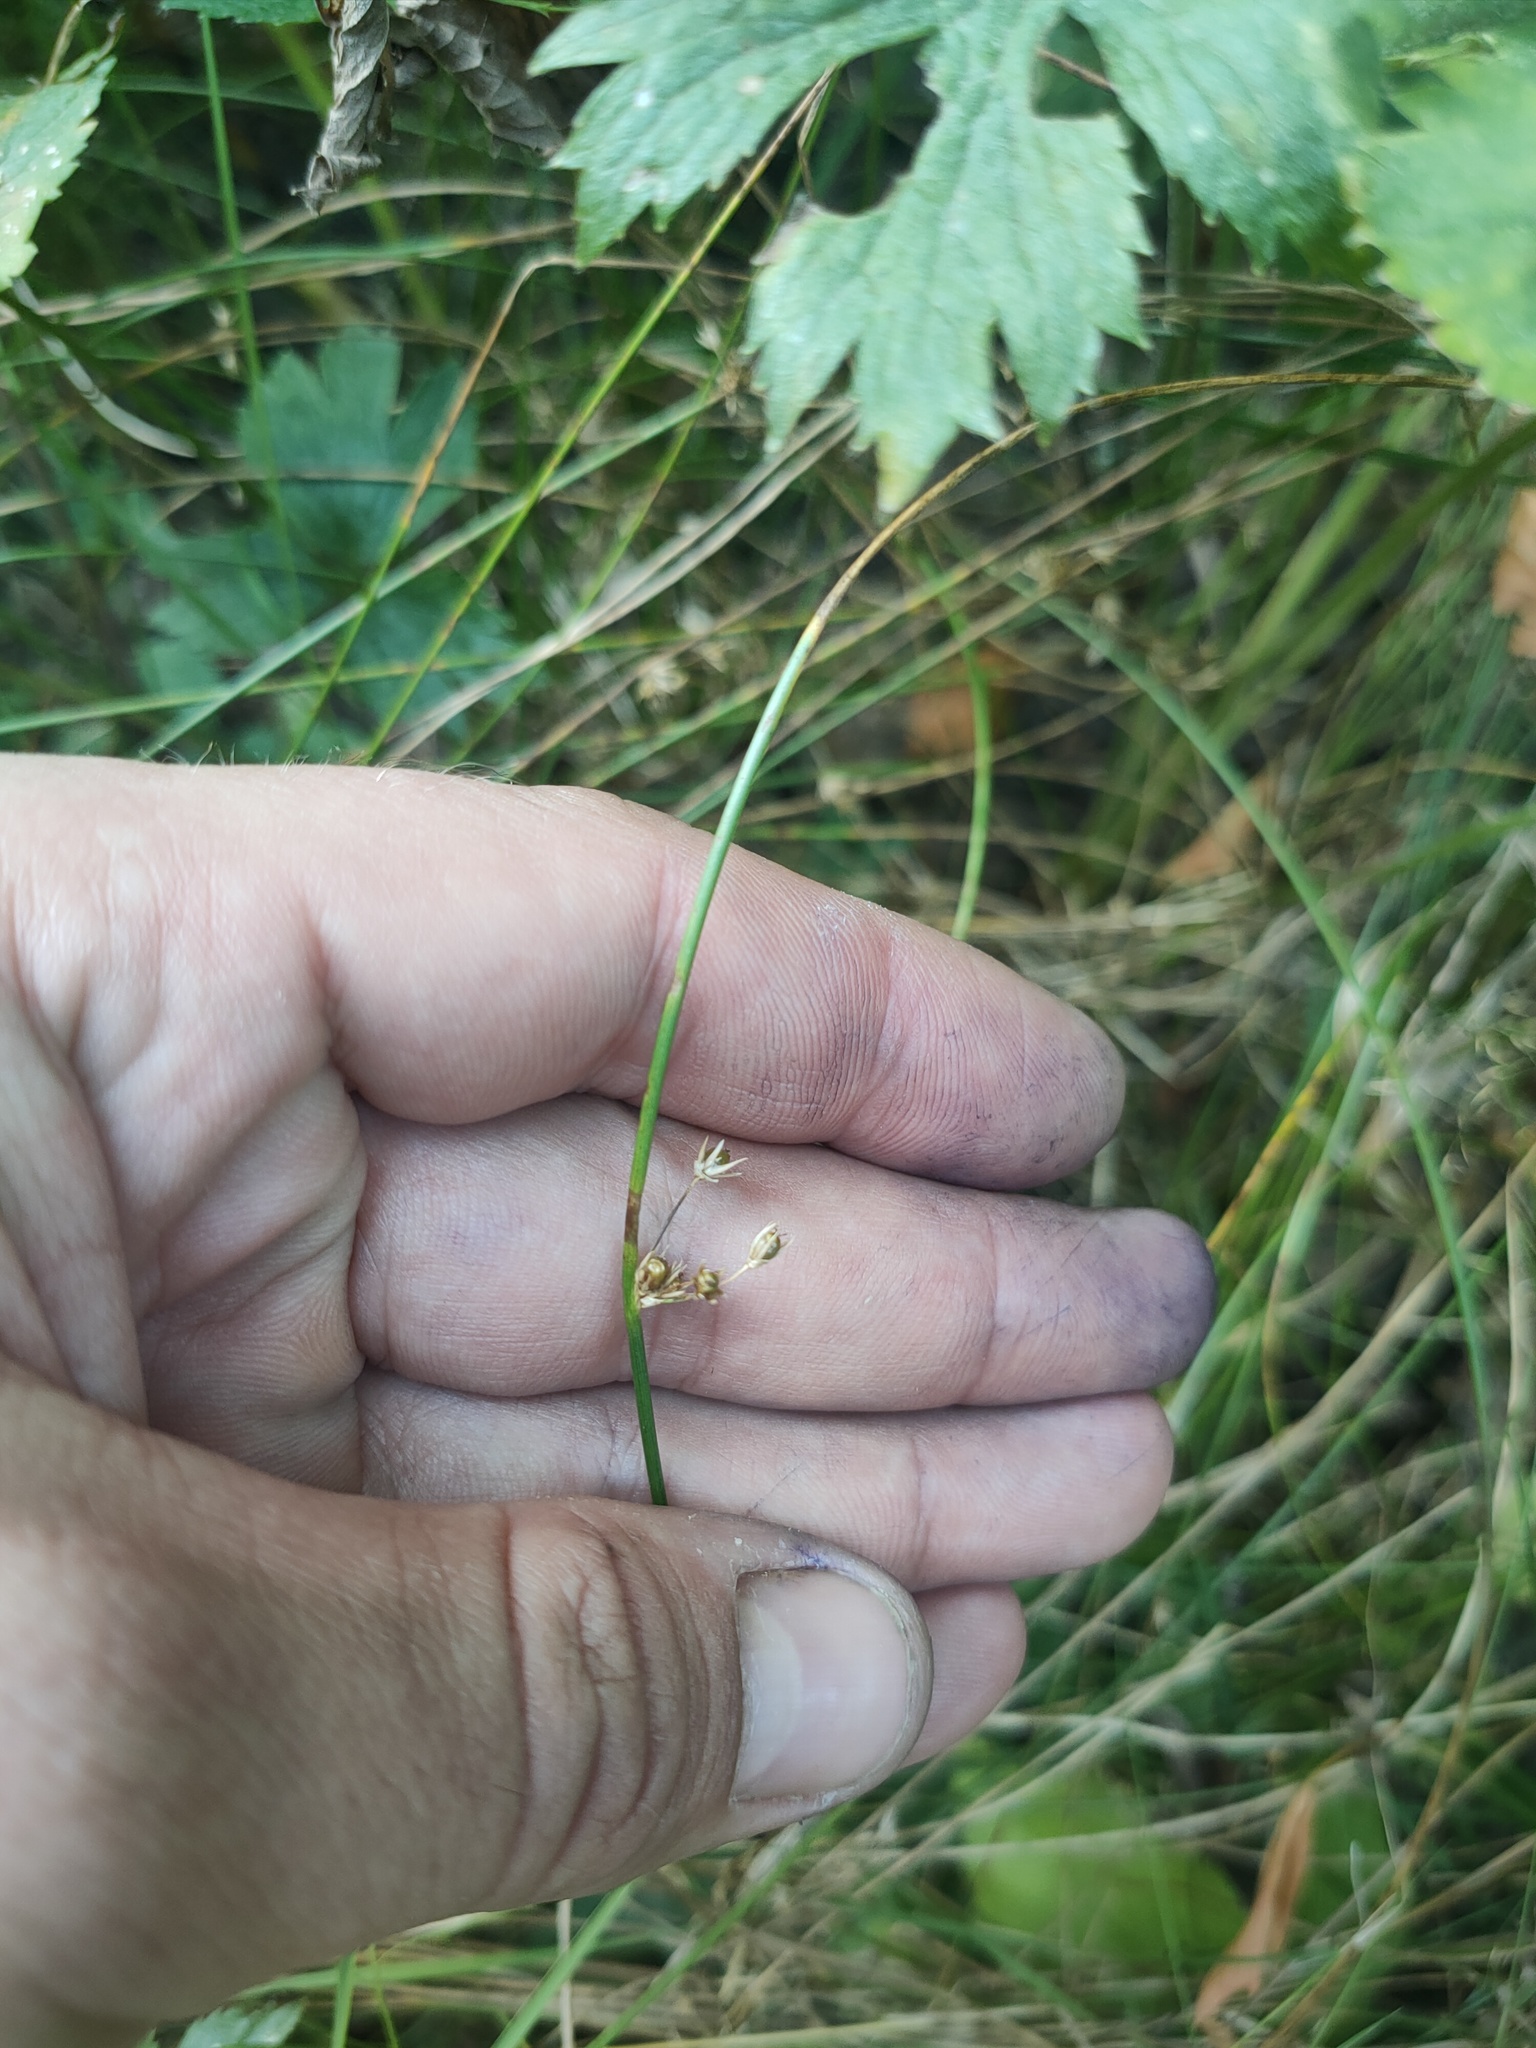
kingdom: Plantae
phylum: Tracheophyta
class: Liliopsida
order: Poales
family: Juncaceae
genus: Juncus
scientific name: Juncus filiformis
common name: Thread rush
